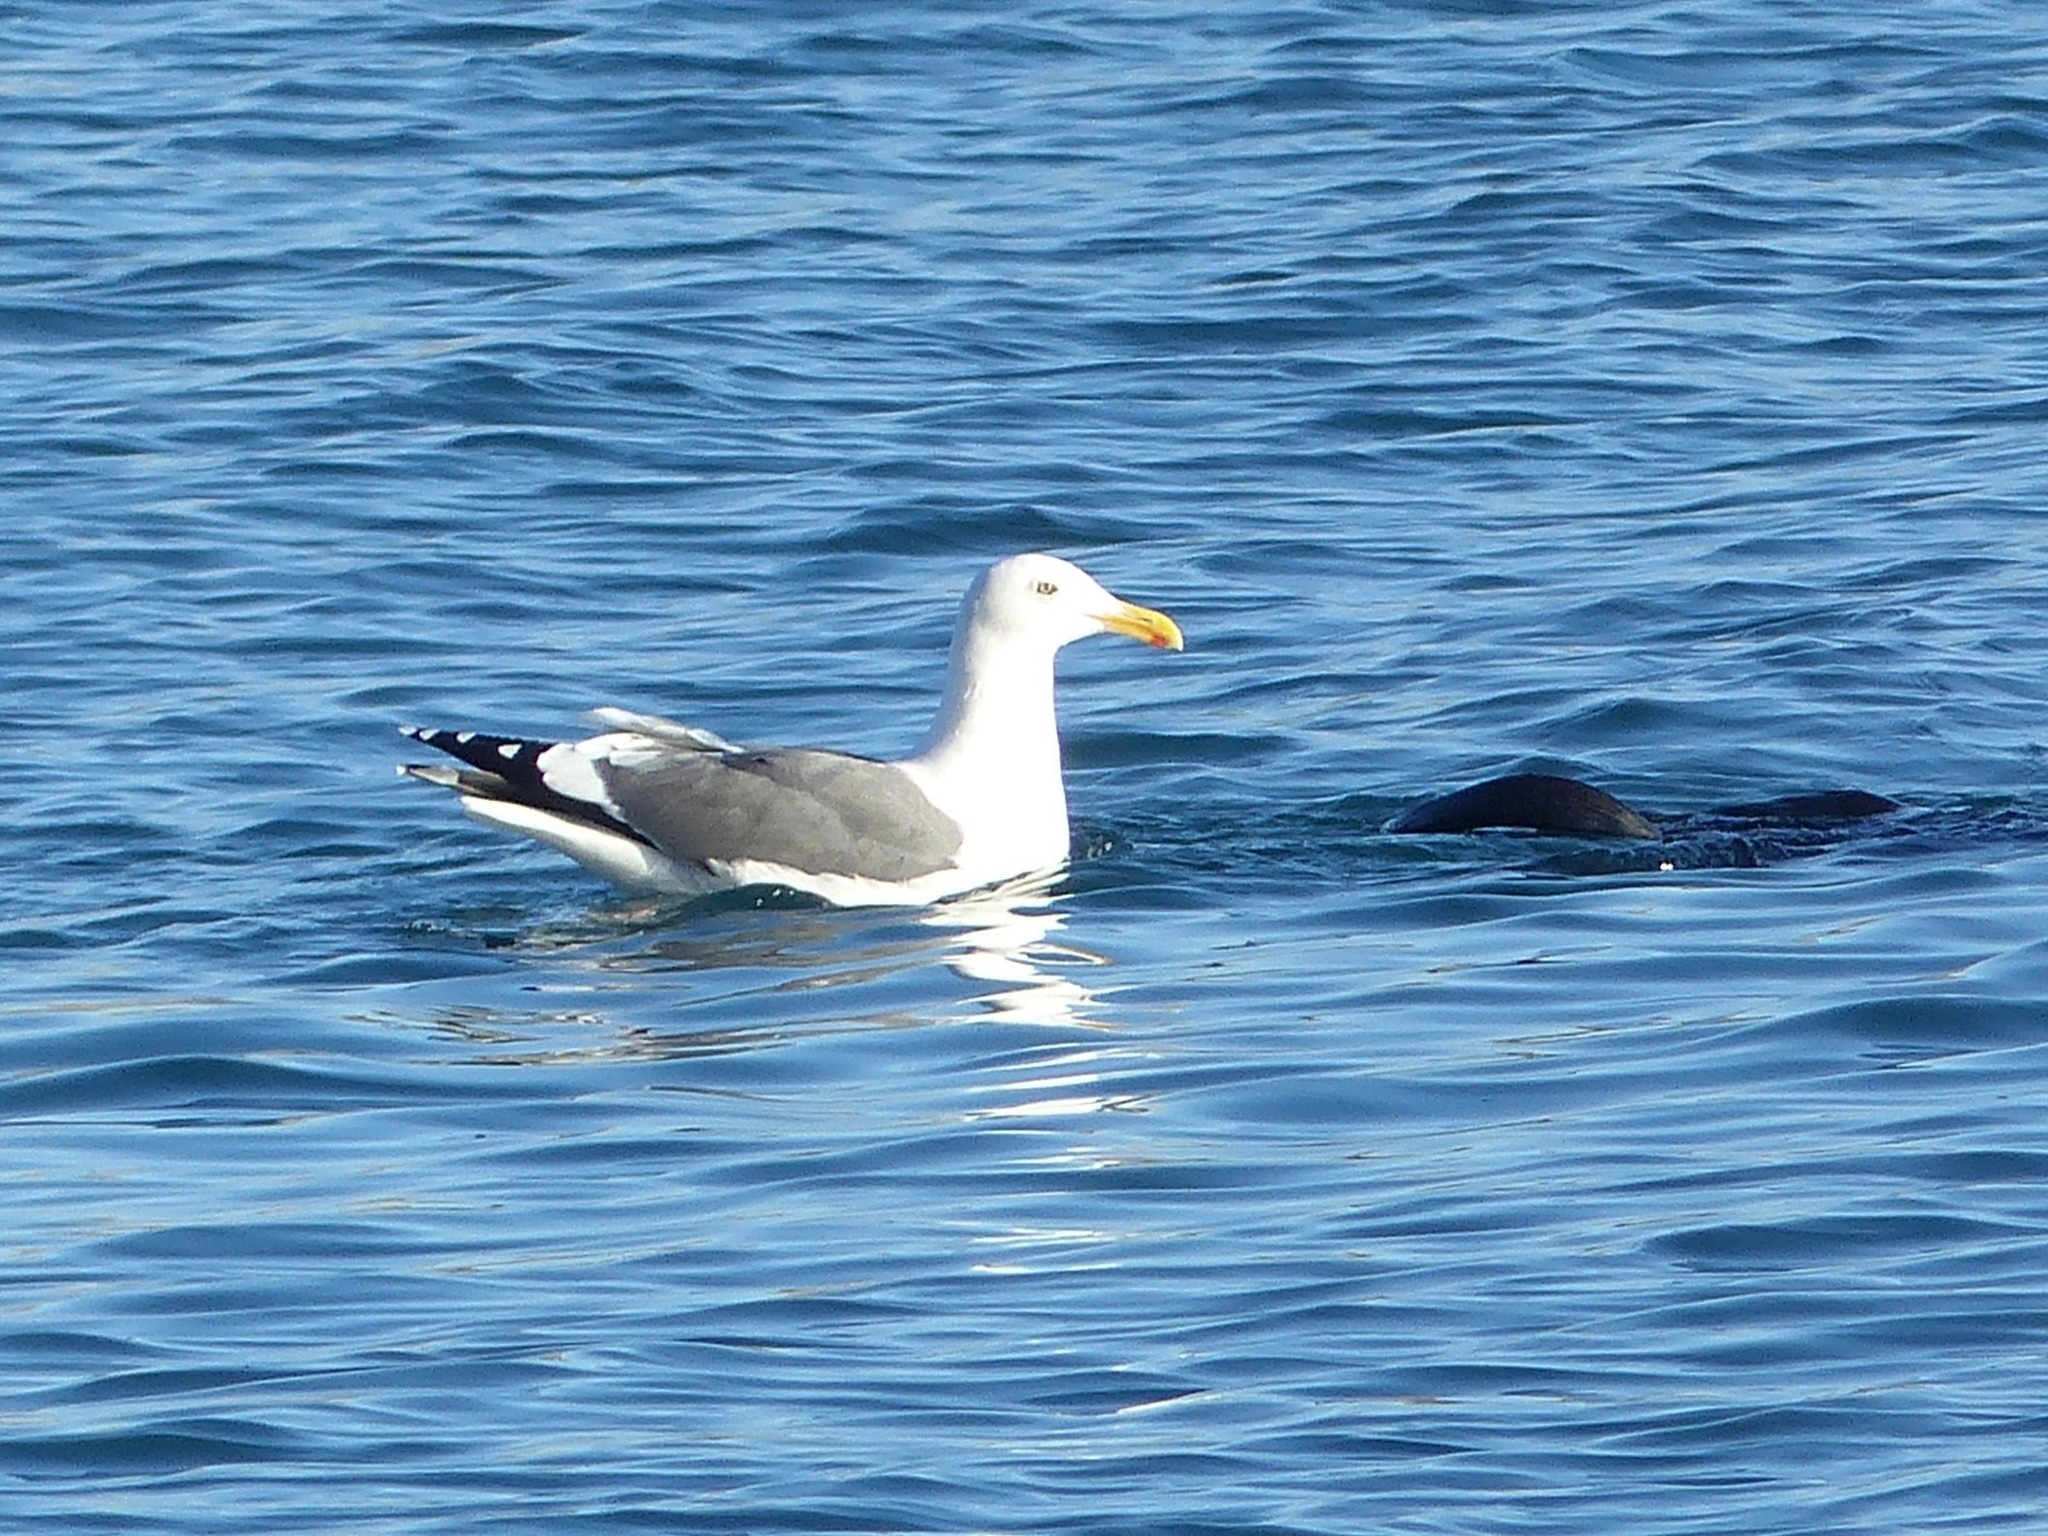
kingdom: Animalia
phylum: Chordata
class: Aves
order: Charadriiformes
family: Laridae
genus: Larus
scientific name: Larus occidentalis
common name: Western gull
